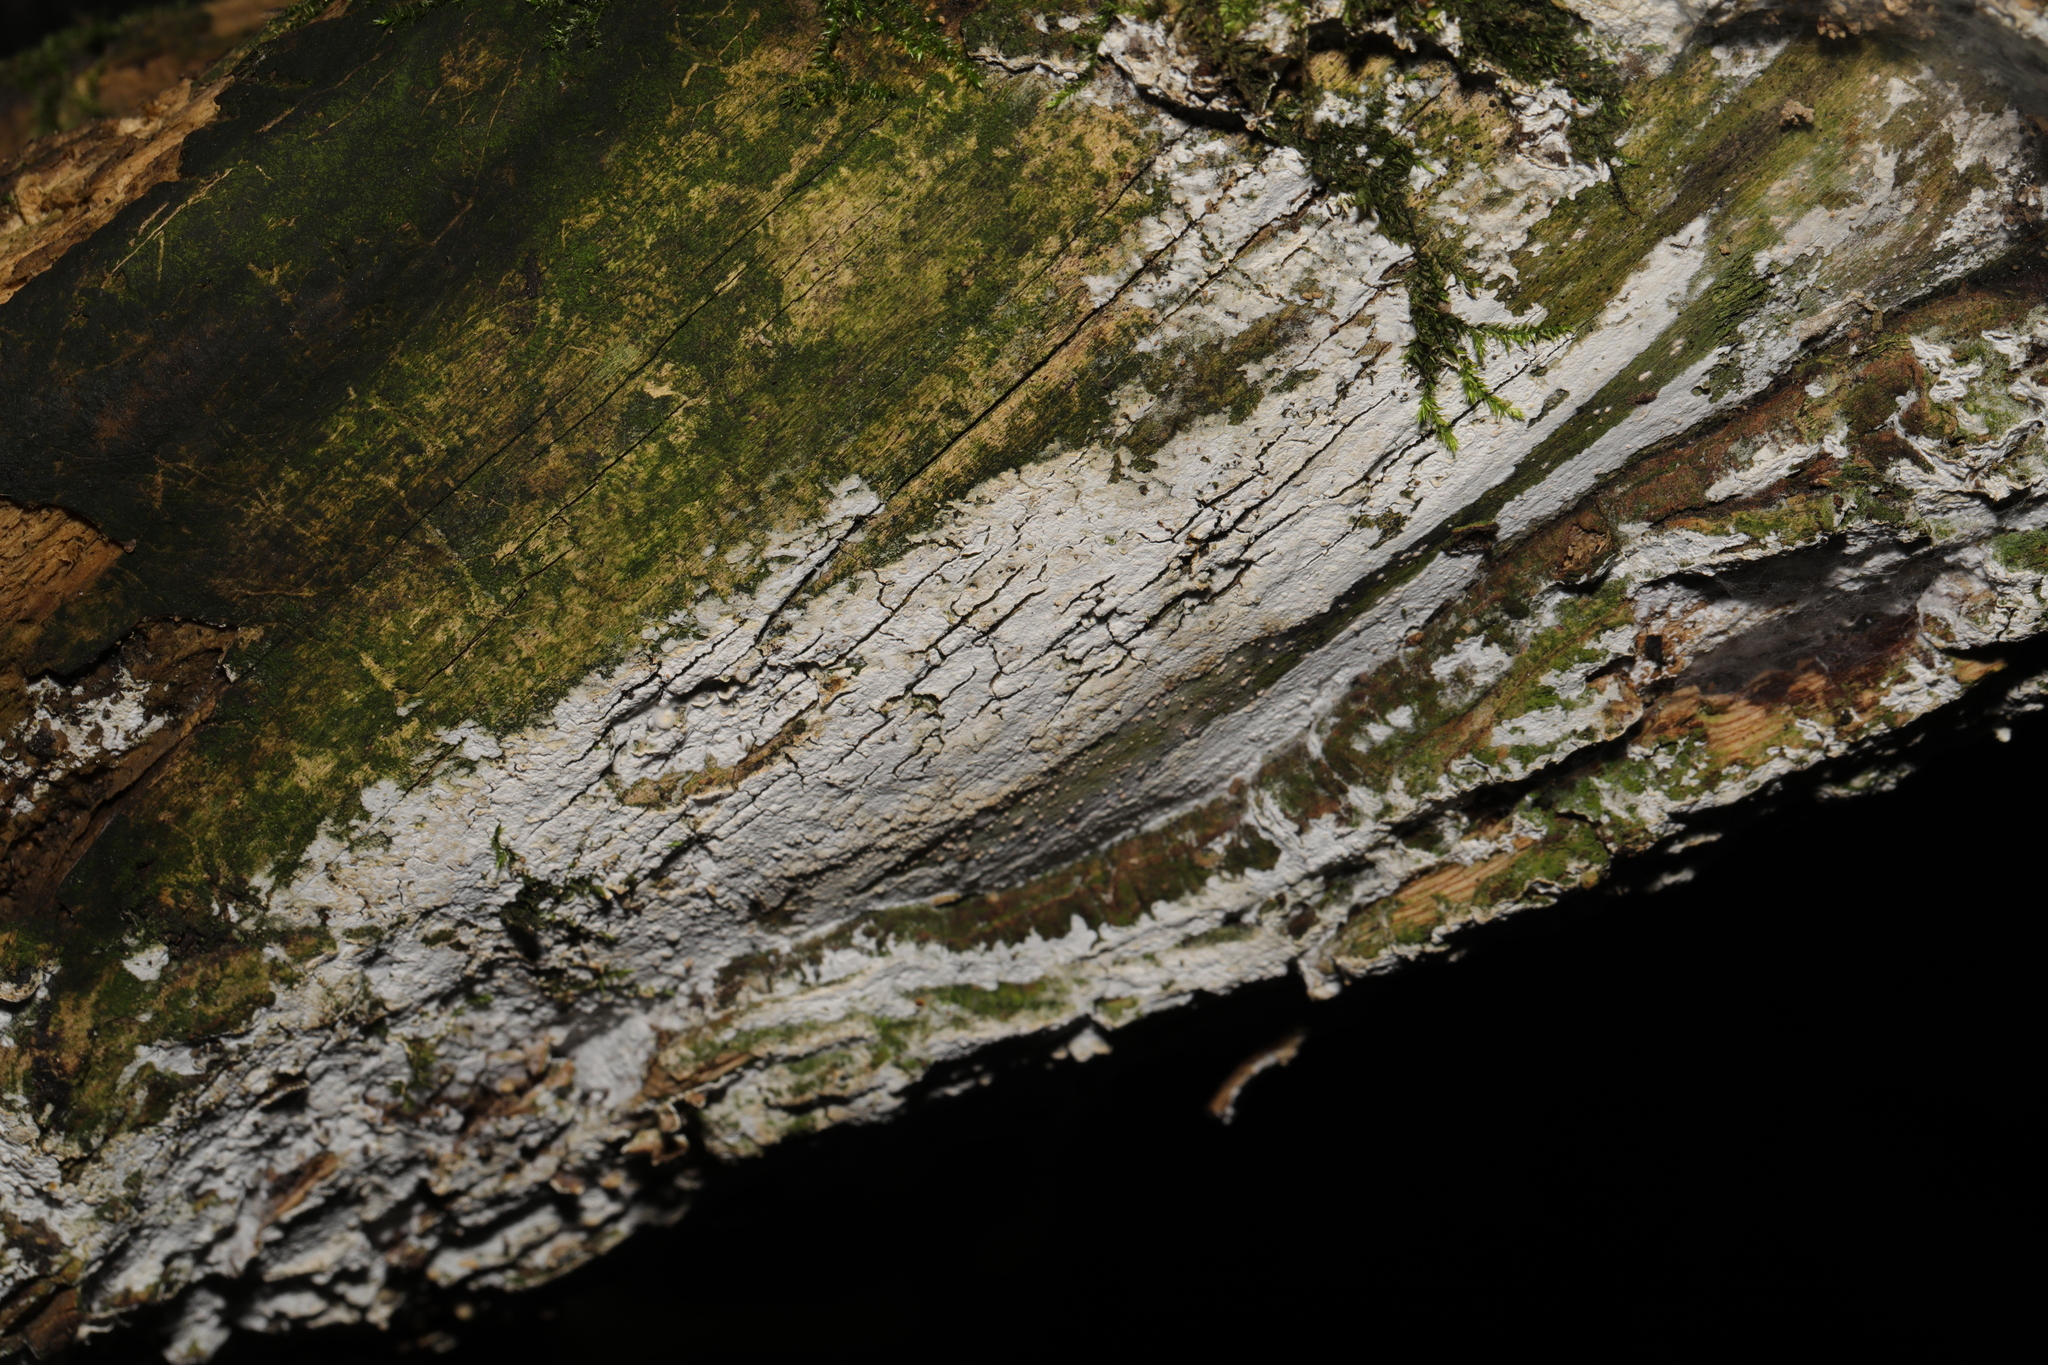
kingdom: Fungi
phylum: Basidiomycota
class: Agaricomycetes
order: Corticiales
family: Corticiaceae
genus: Lyomyces
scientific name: Lyomyces sambuci
